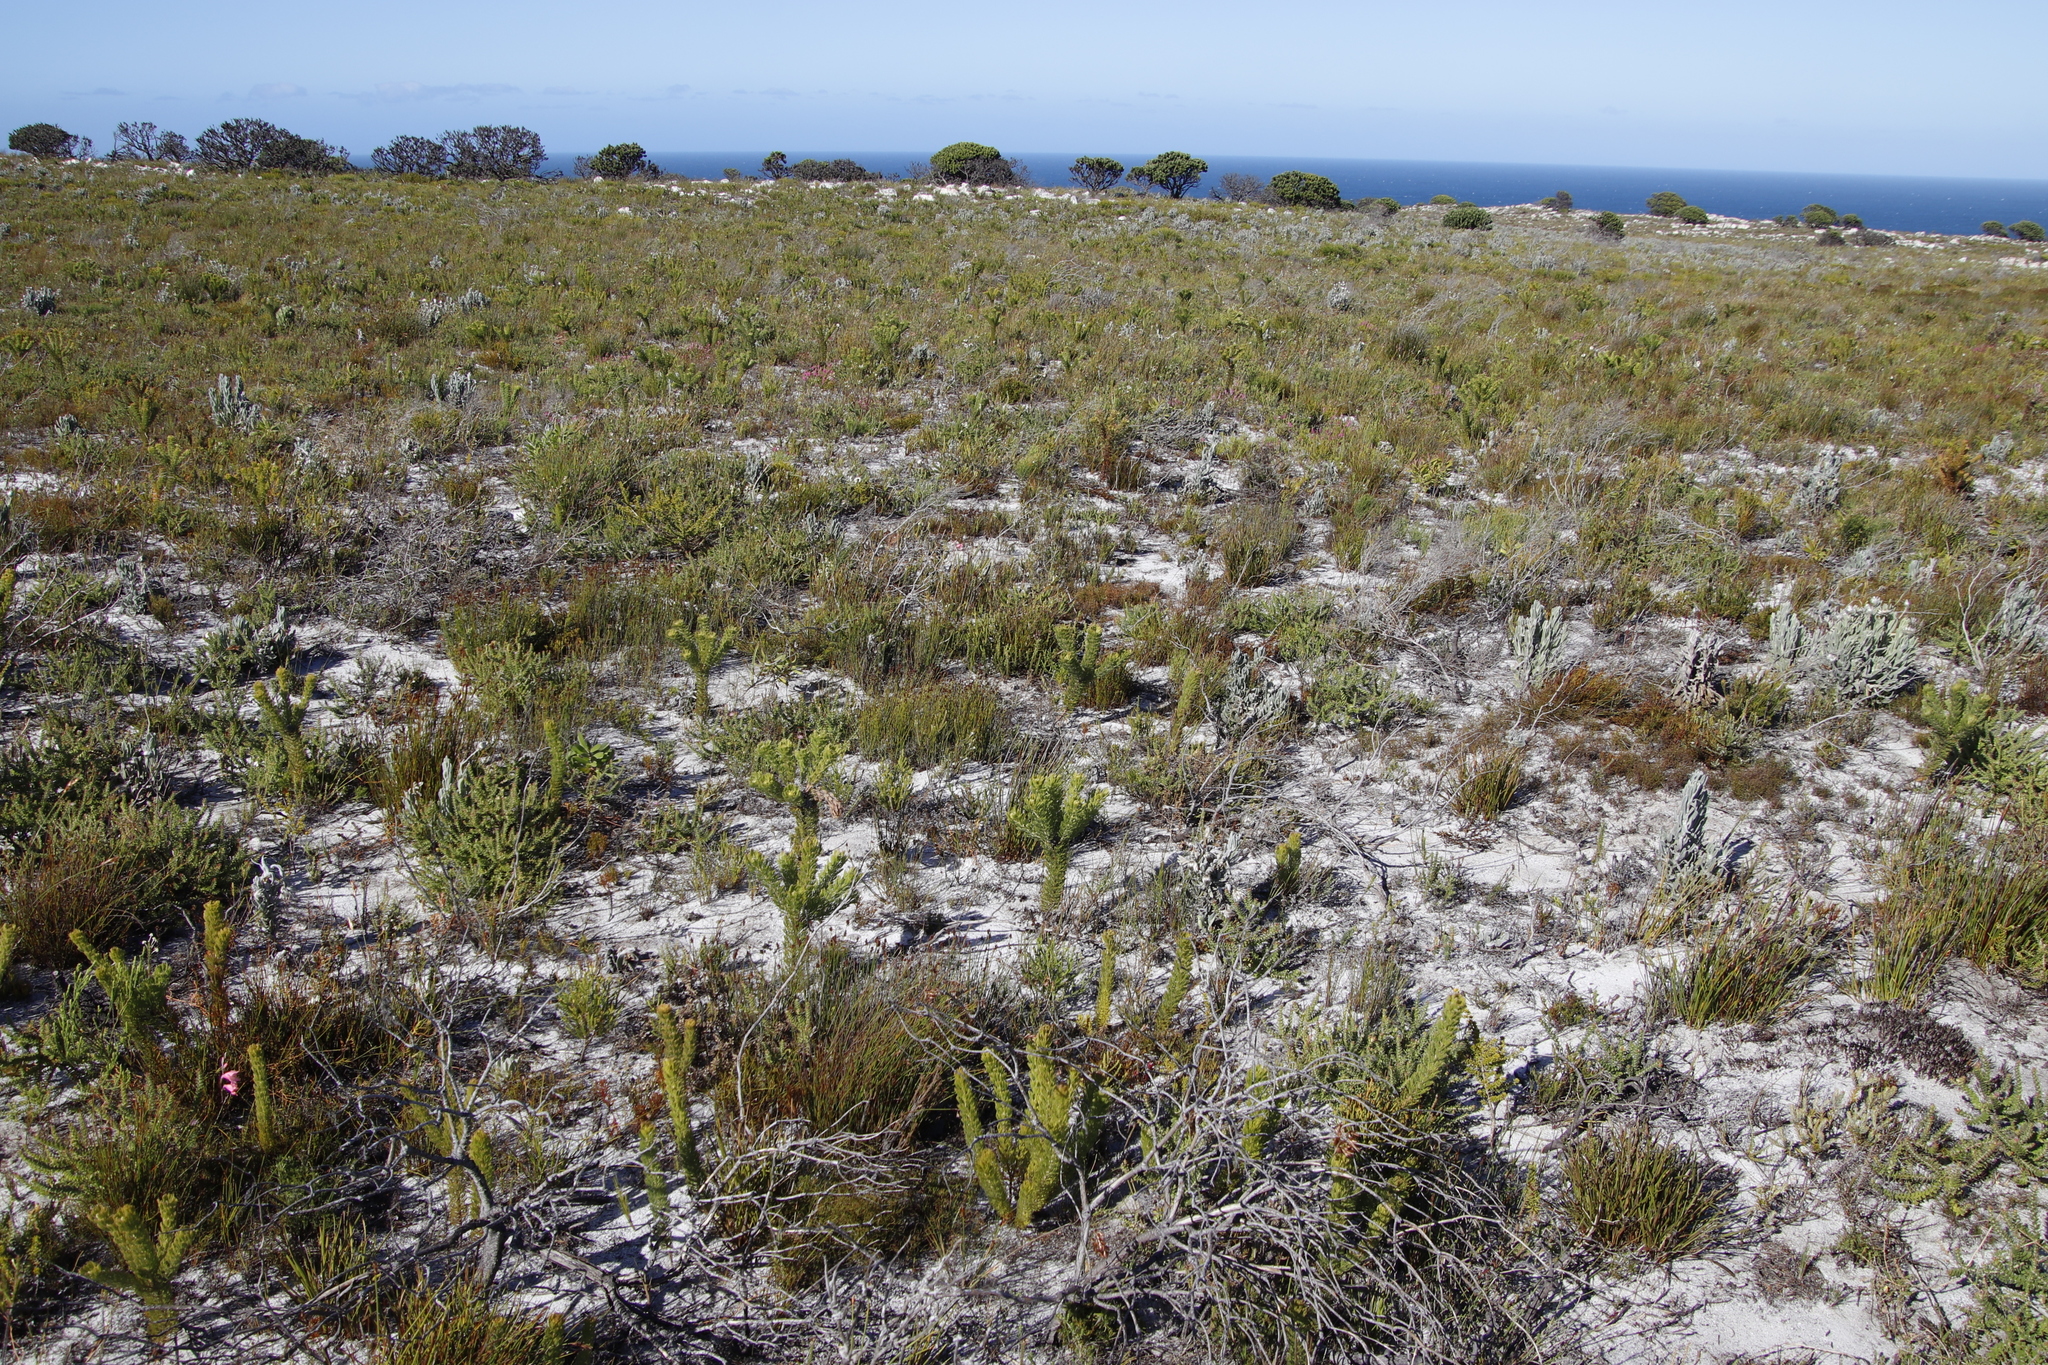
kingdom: Plantae
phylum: Tracheophyta
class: Magnoliopsida
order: Proteales
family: Proteaceae
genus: Serruria
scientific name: Serruria villosa
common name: Golden spiderhead
